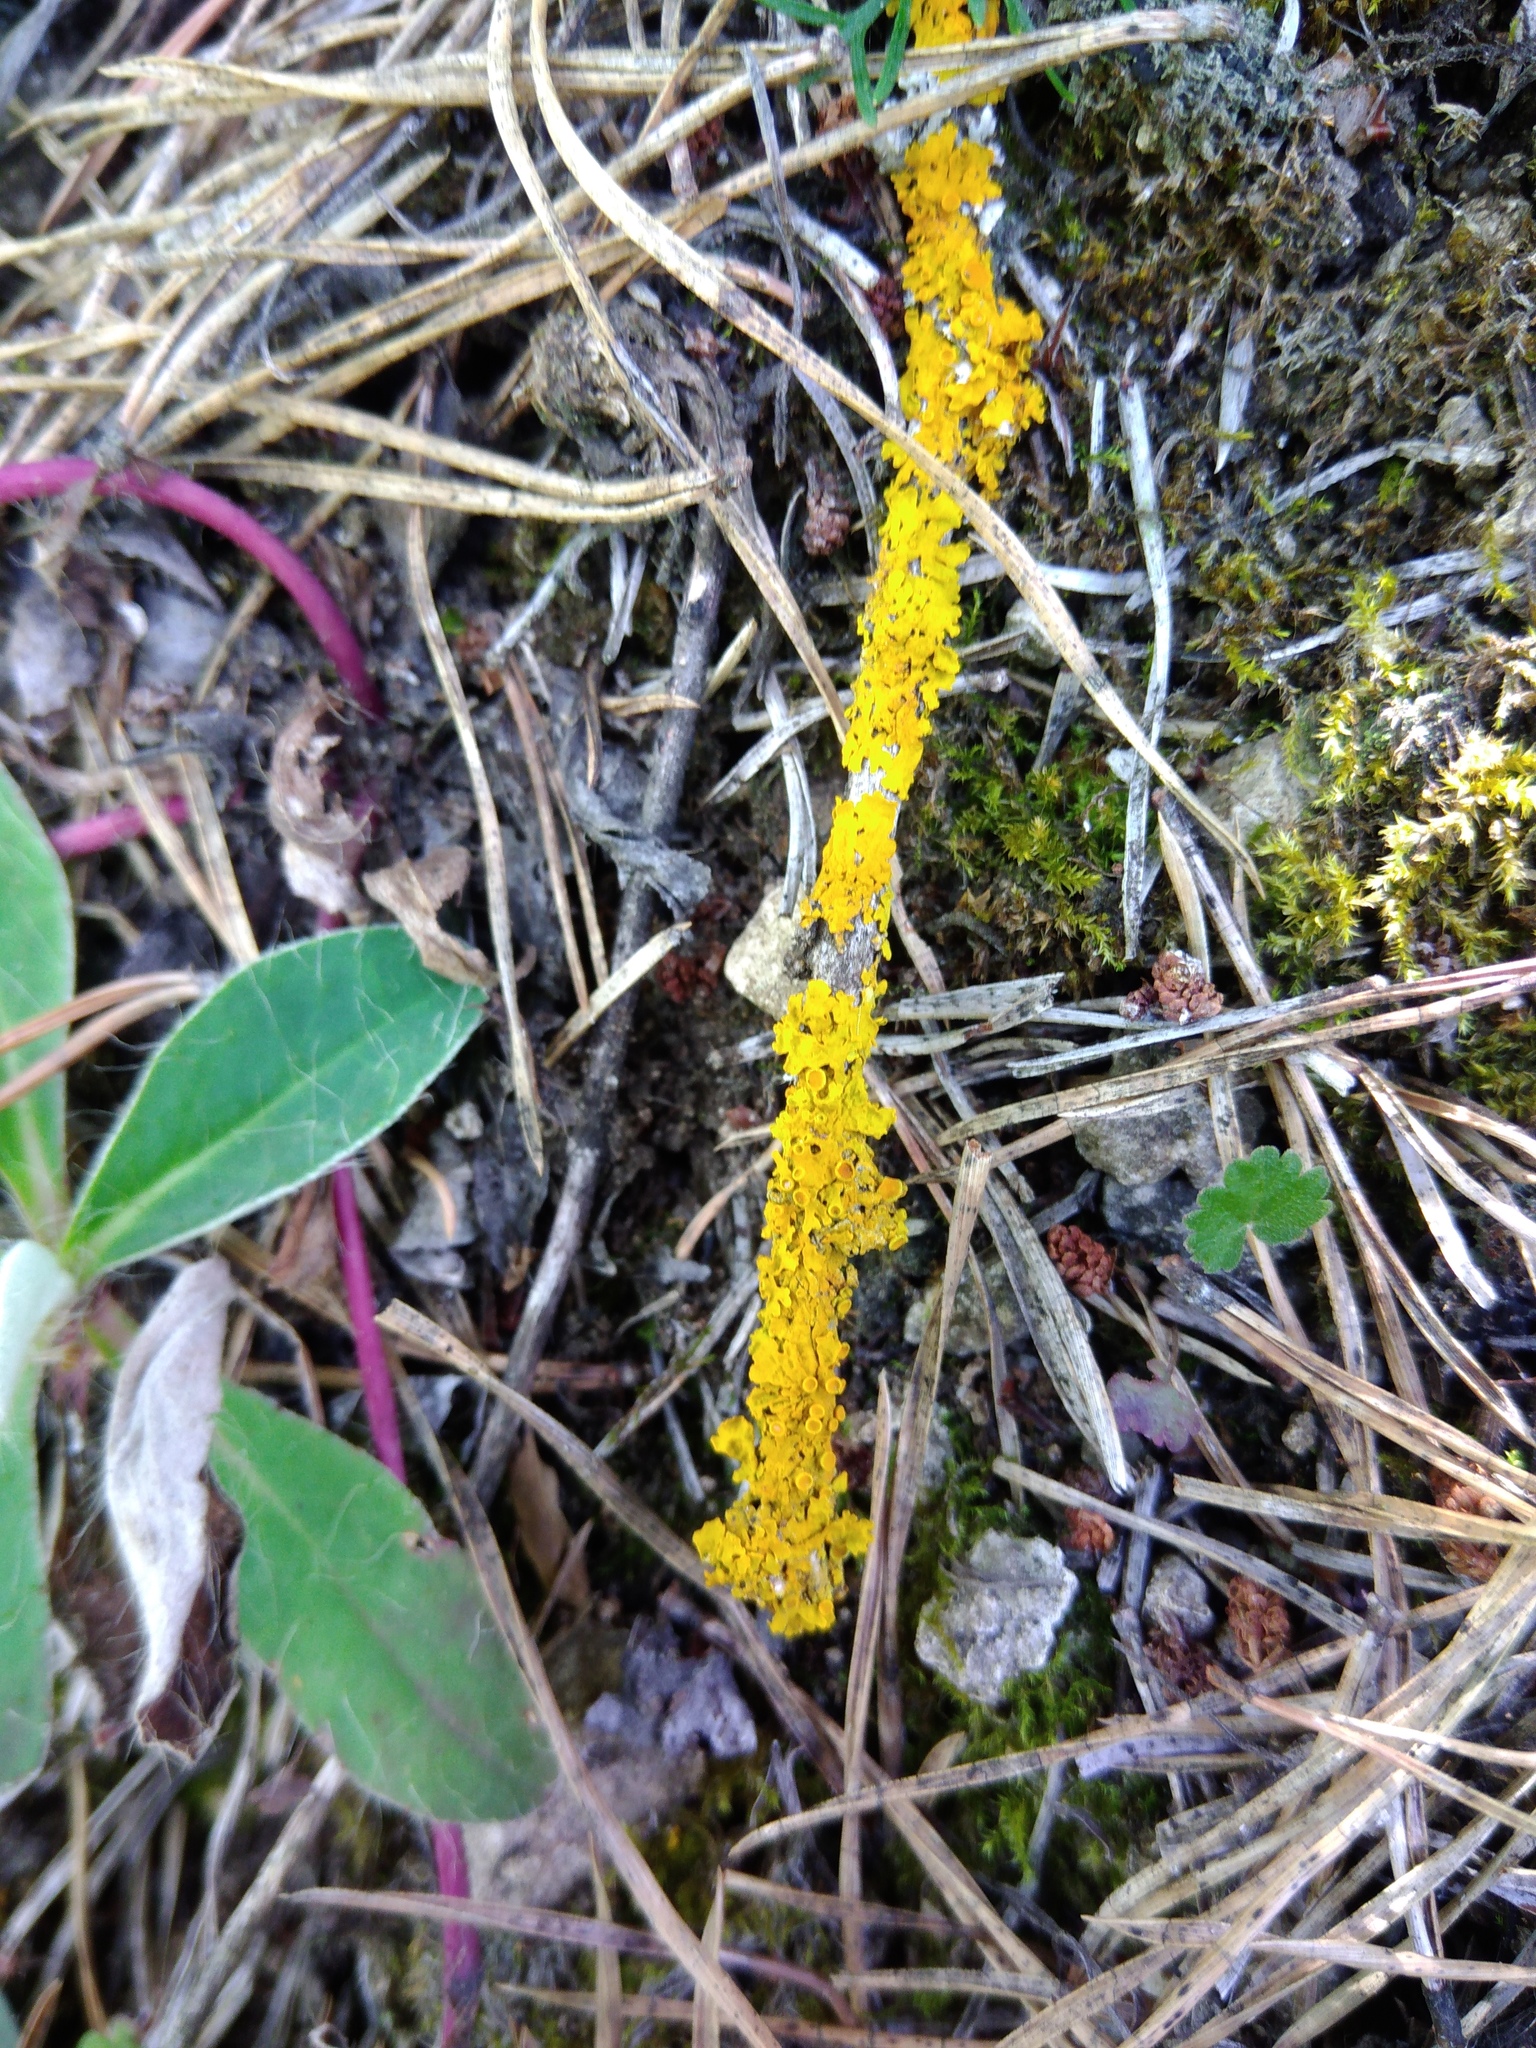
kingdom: Fungi
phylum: Ascomycota
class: Lecanoromycetes
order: Teloschistales
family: Teloschistaceae
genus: Xanthoria
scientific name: Xanthoria parietina
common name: Common orange lichen
